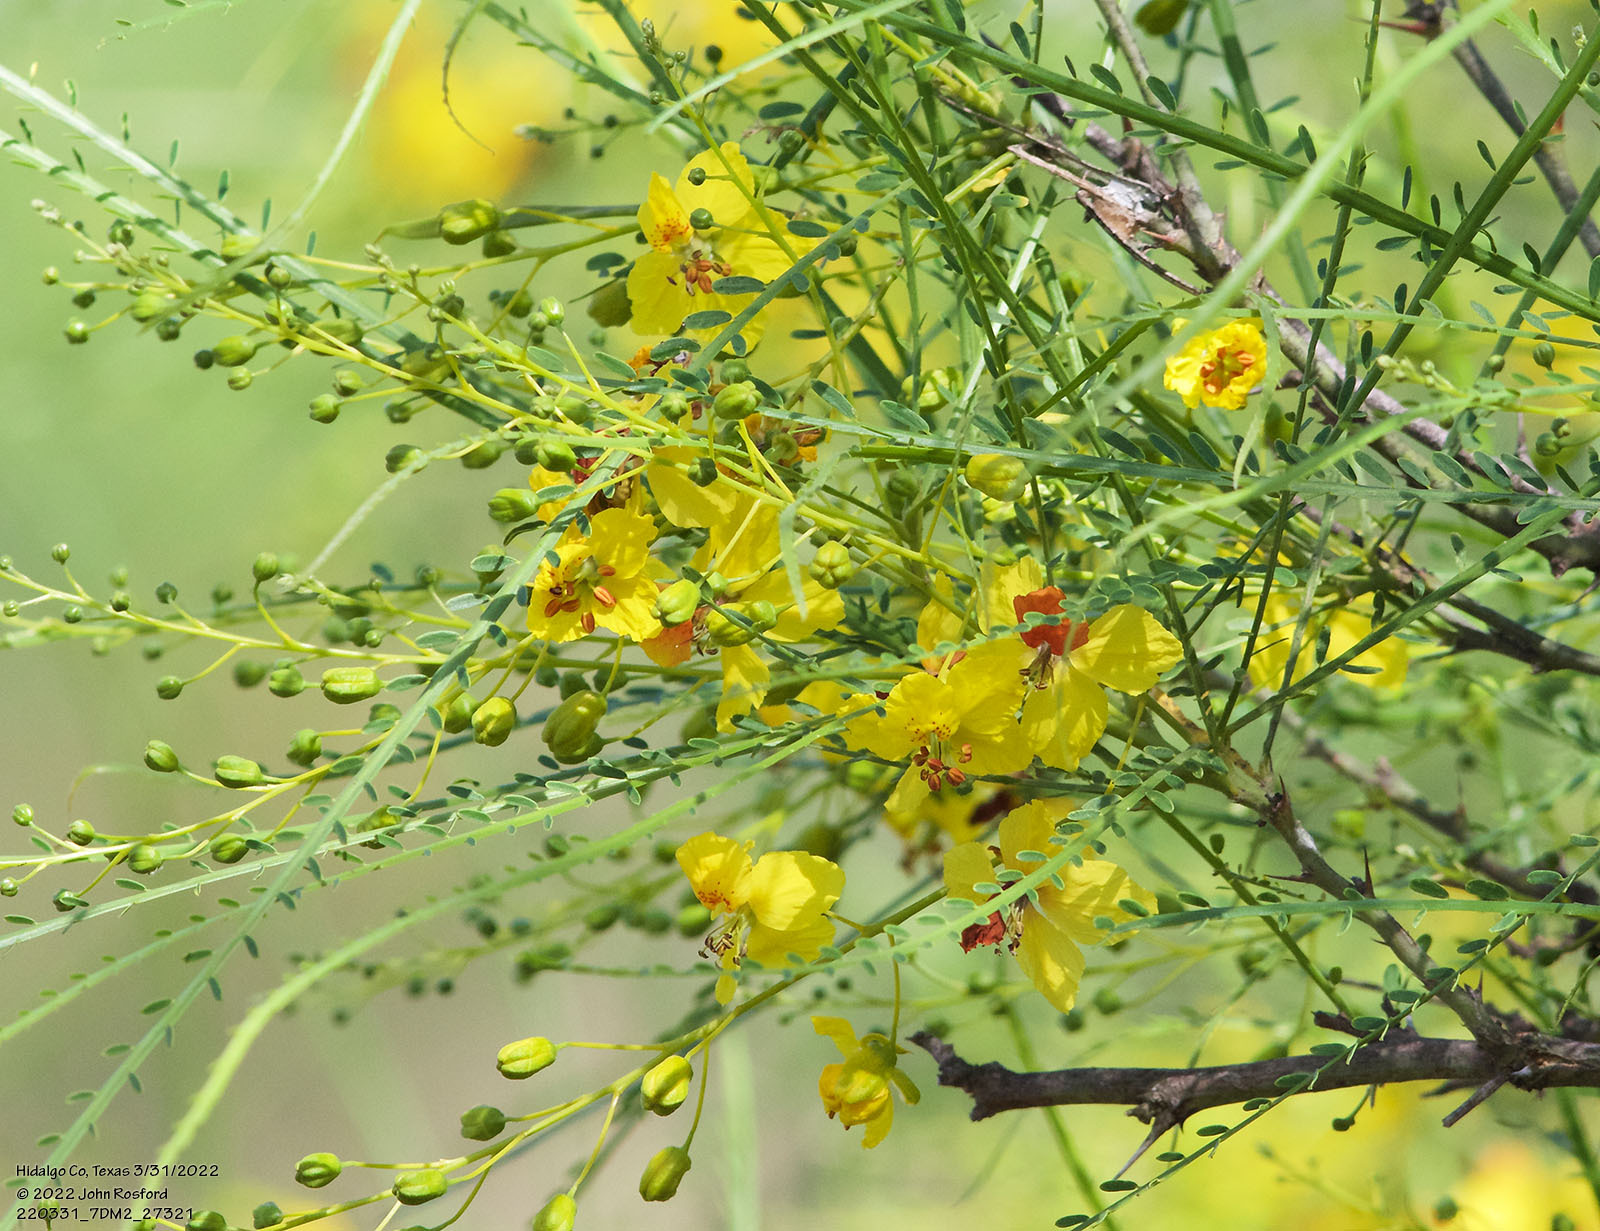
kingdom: Plantae
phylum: Tracheophyta
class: Magnoliopsida
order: Fabales
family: Fabaceae
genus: Parkinsonia
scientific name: Parkinsonia aculeata
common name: Jerusalem thorn
